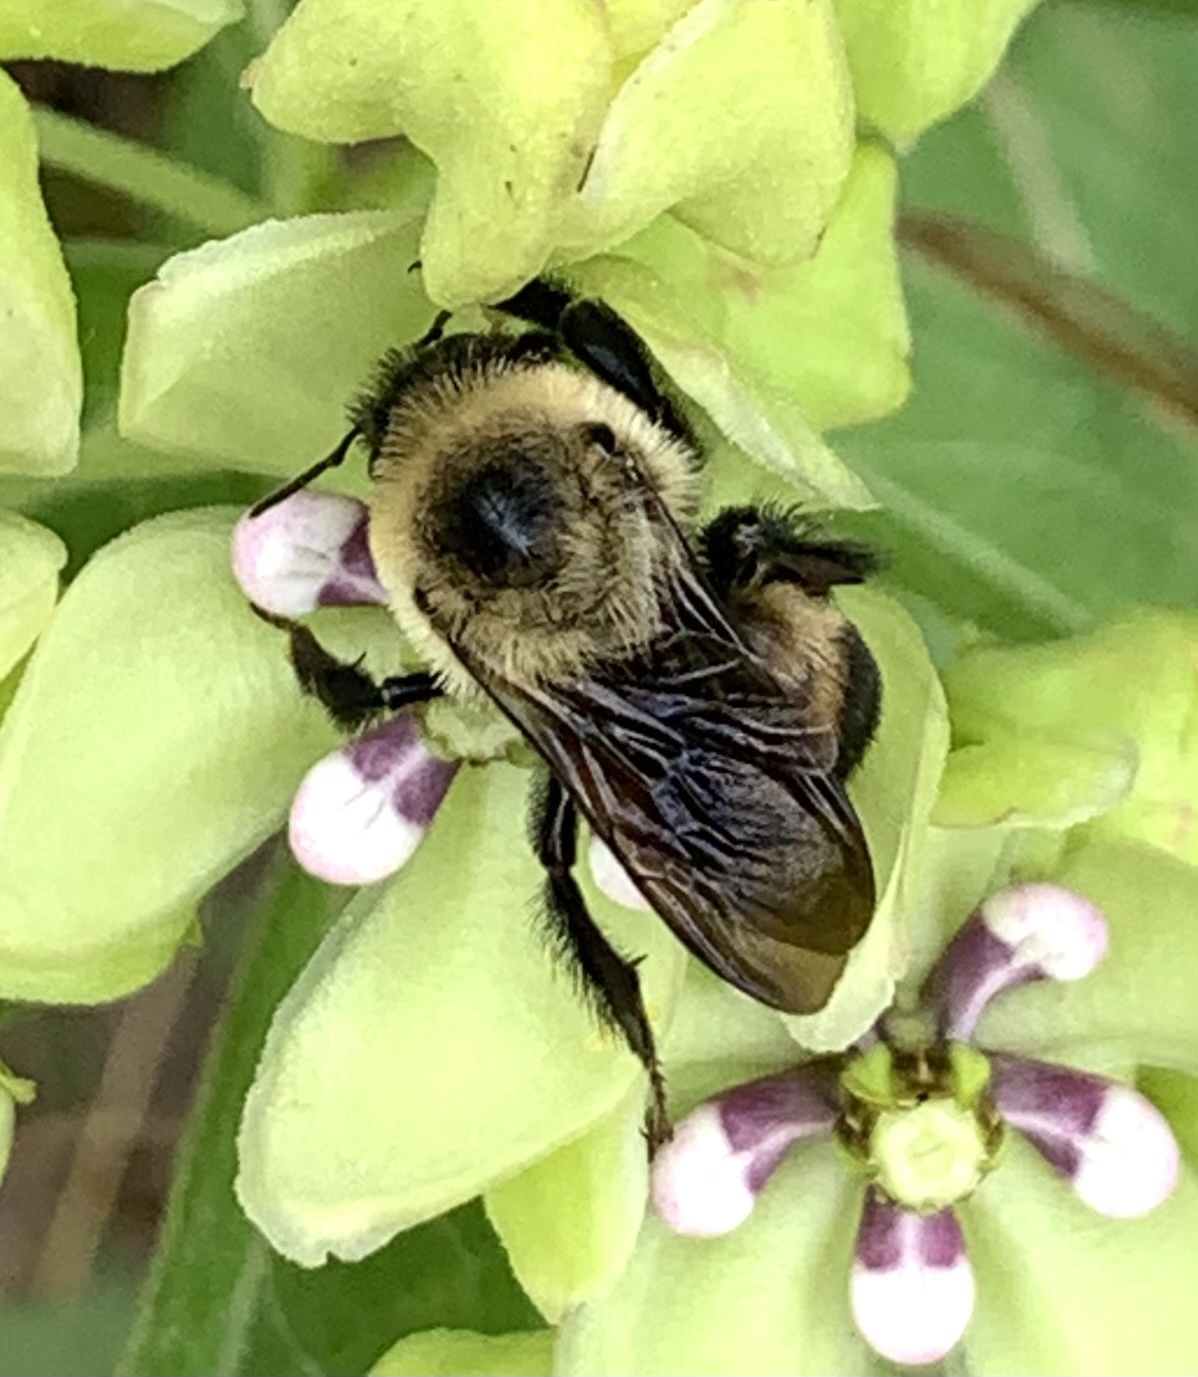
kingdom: Animalia
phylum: Arthropoda
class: Insecta
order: Hymenoptera
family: Apidae
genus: Bombus
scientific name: Bombus griseocollis
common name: Brown-belted bumble bee
